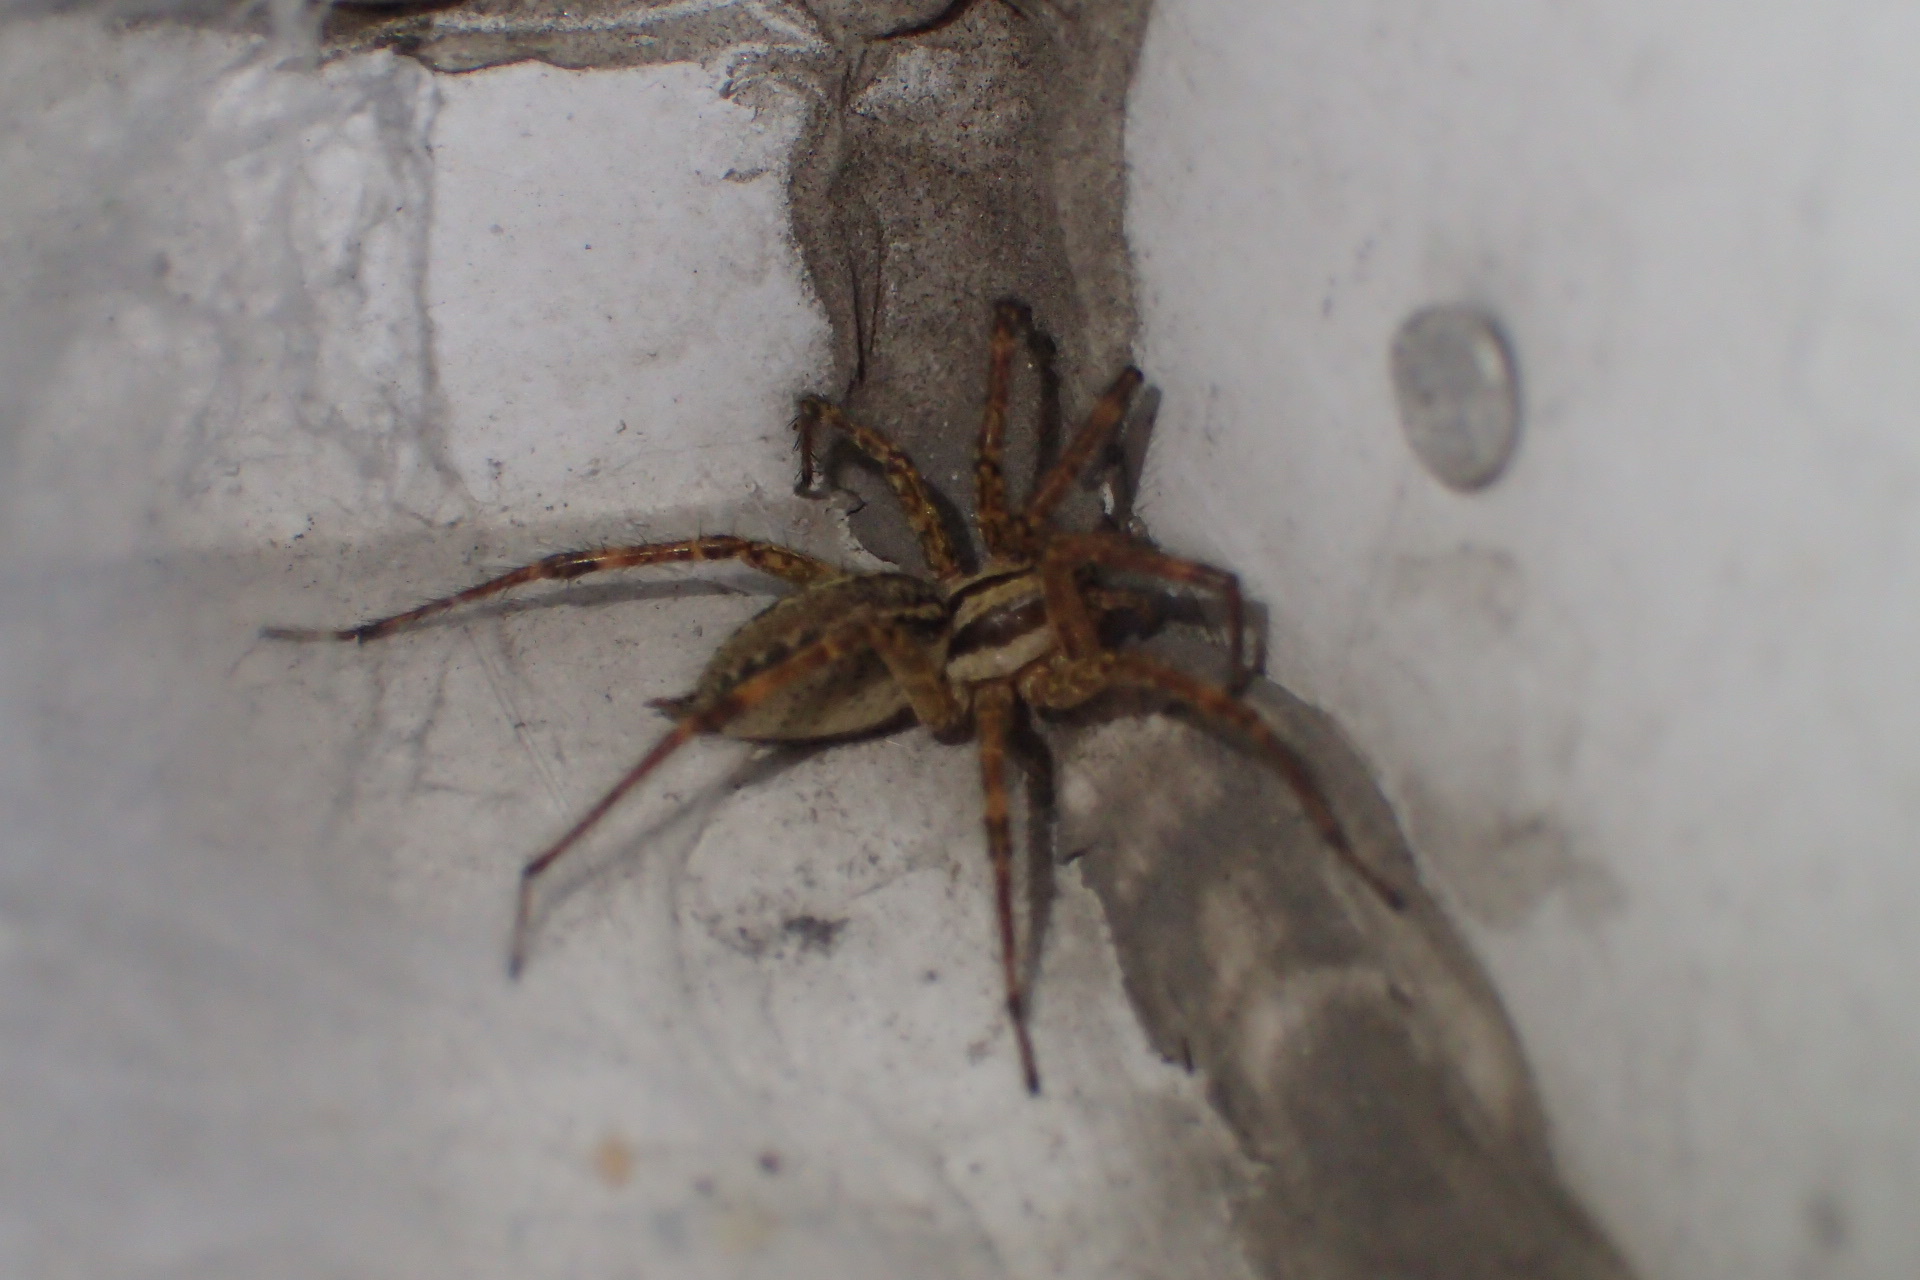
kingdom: Animalia
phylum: Arthropoda
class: Arachnida
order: Araneae
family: Agelenidae
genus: Agelenopsis
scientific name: Agelenopsis
